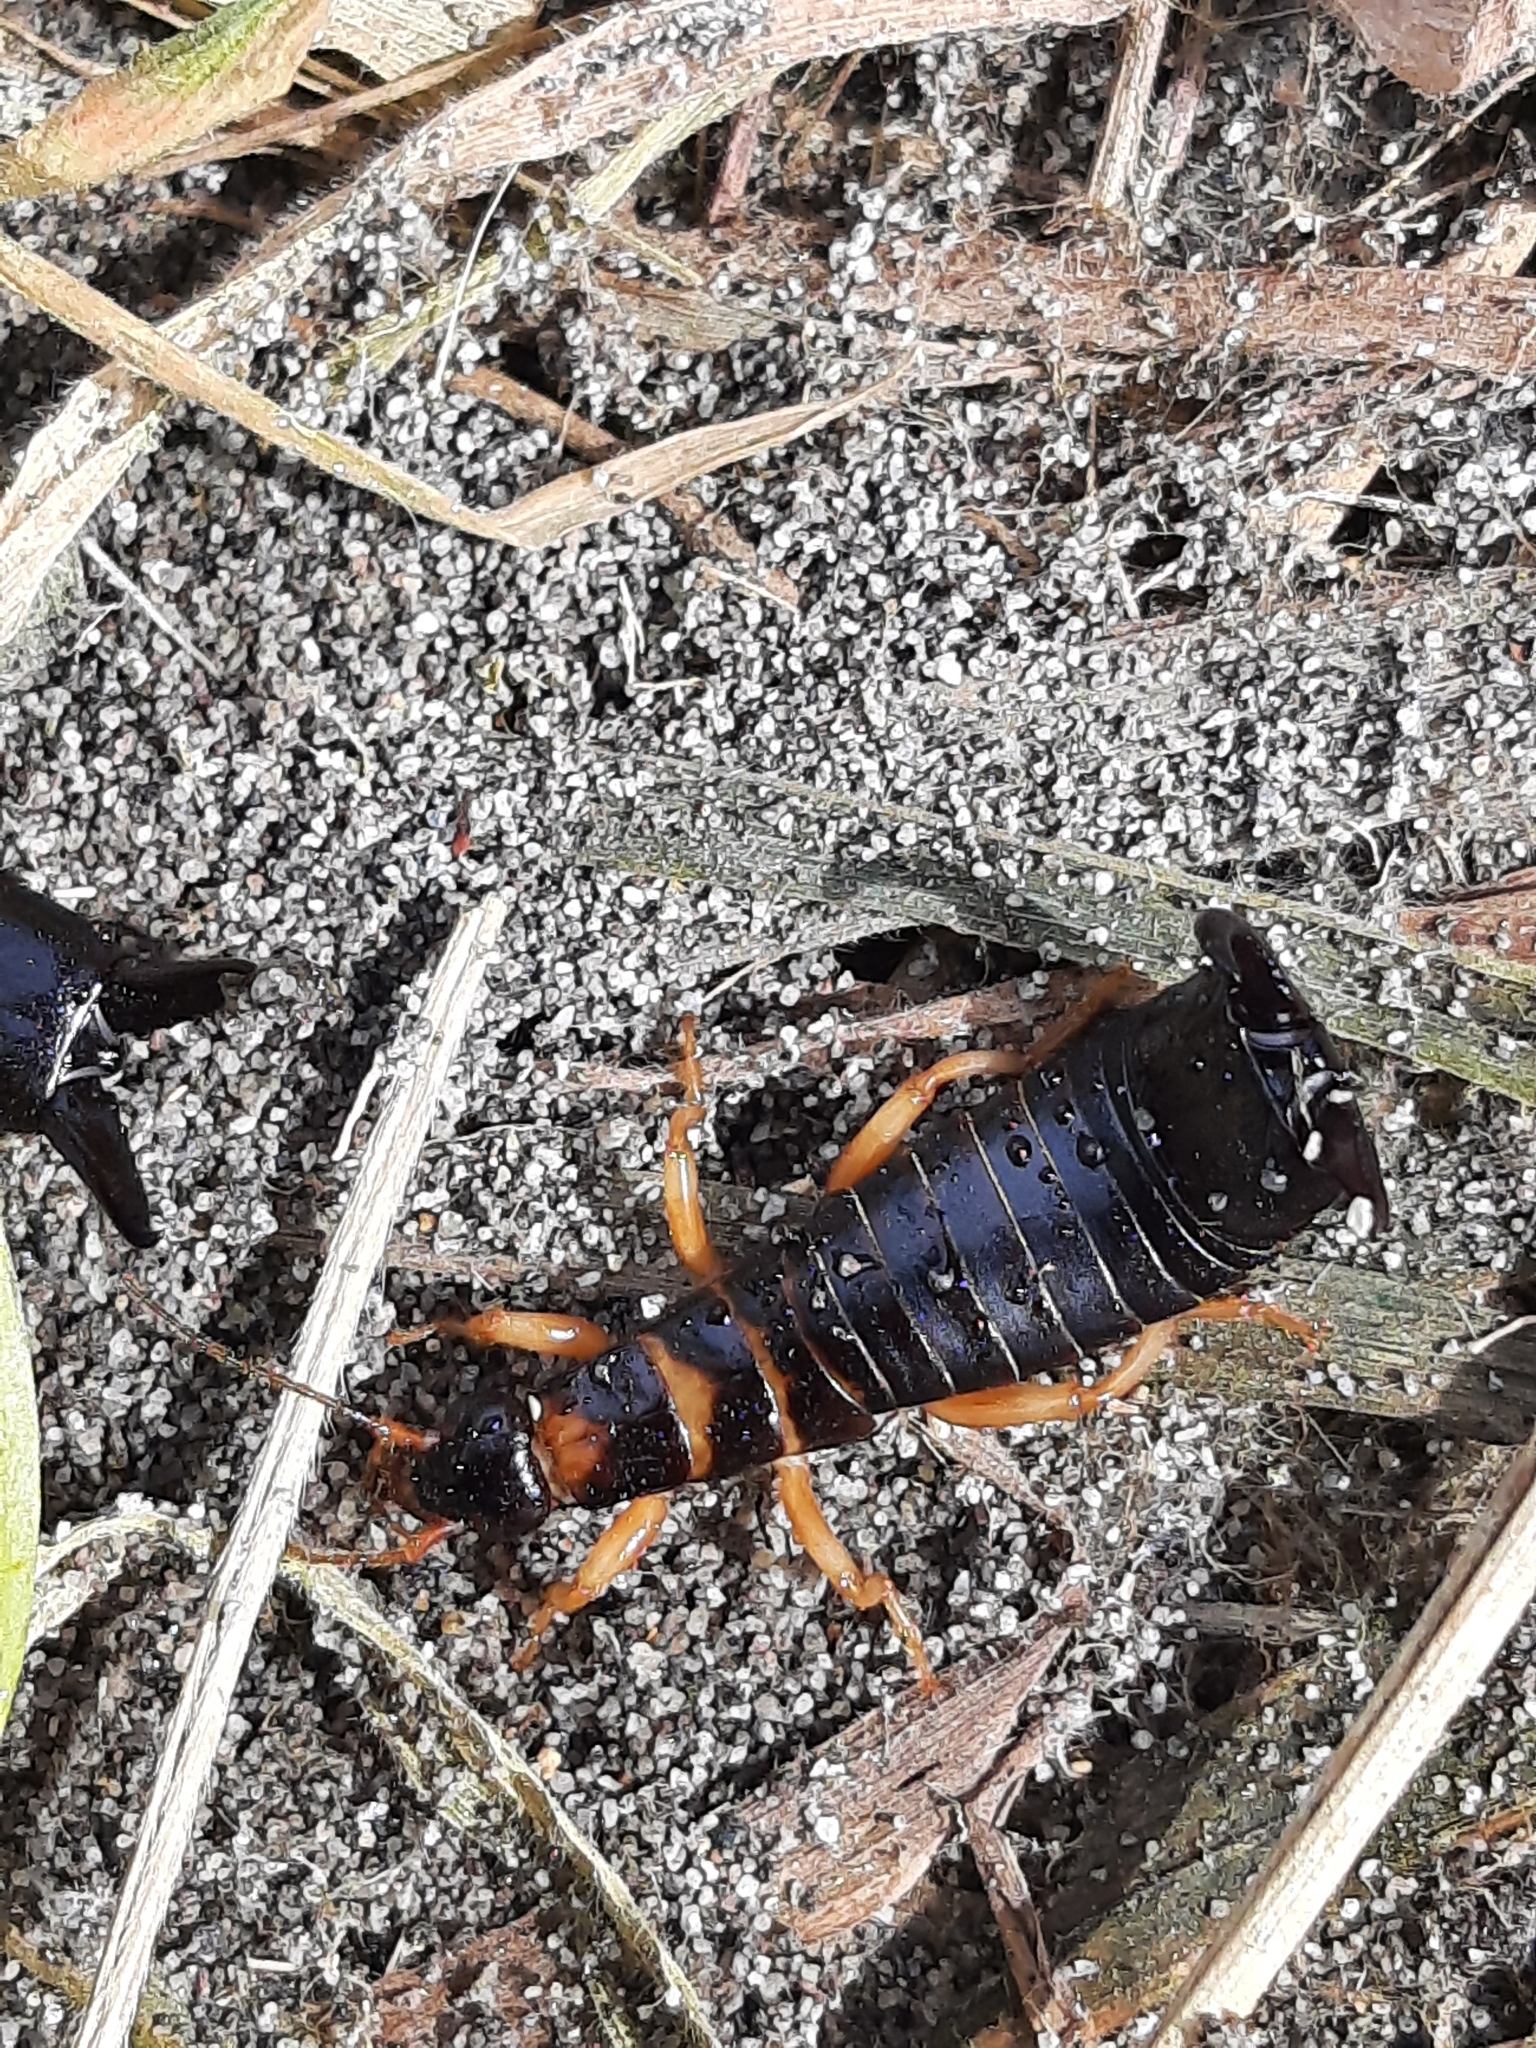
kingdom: Animalia
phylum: Arthropoda
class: Insecta
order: Dermaptera
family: Anisolabididae
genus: Anisolabis
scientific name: Anisolabis littorea
